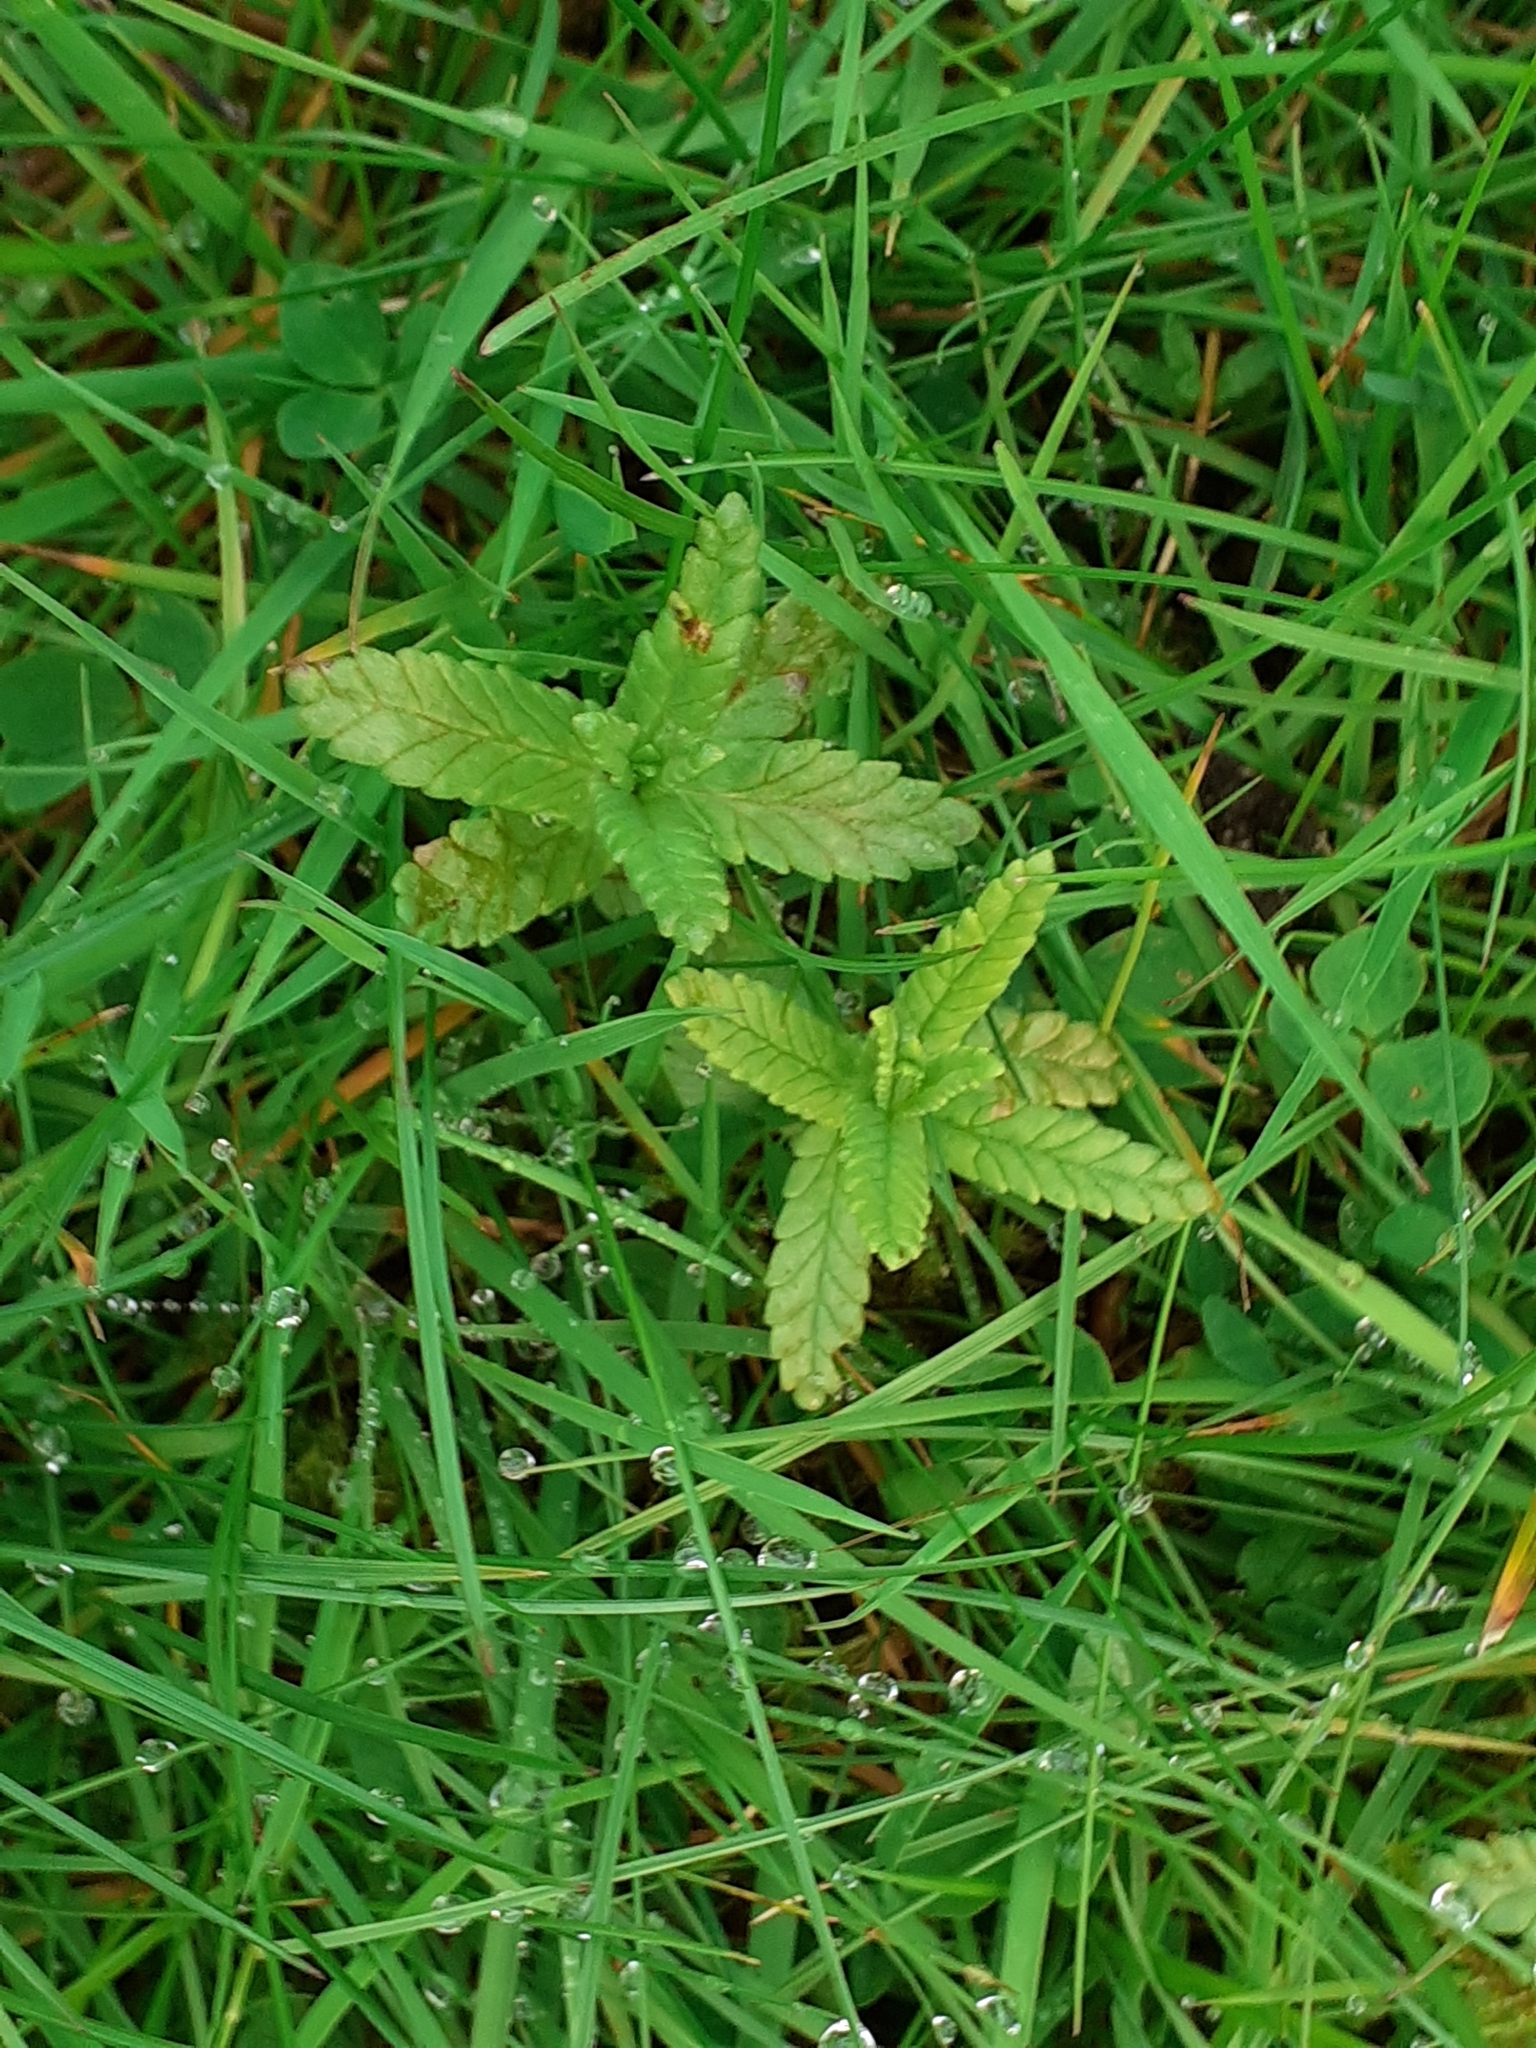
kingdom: Plantae
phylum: Tracheophyta
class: Magnoliopsida
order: Lamiales
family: Orobanchaceae
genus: Rhinanthus
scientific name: Rhinanthus minor
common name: Yellow-rattle
